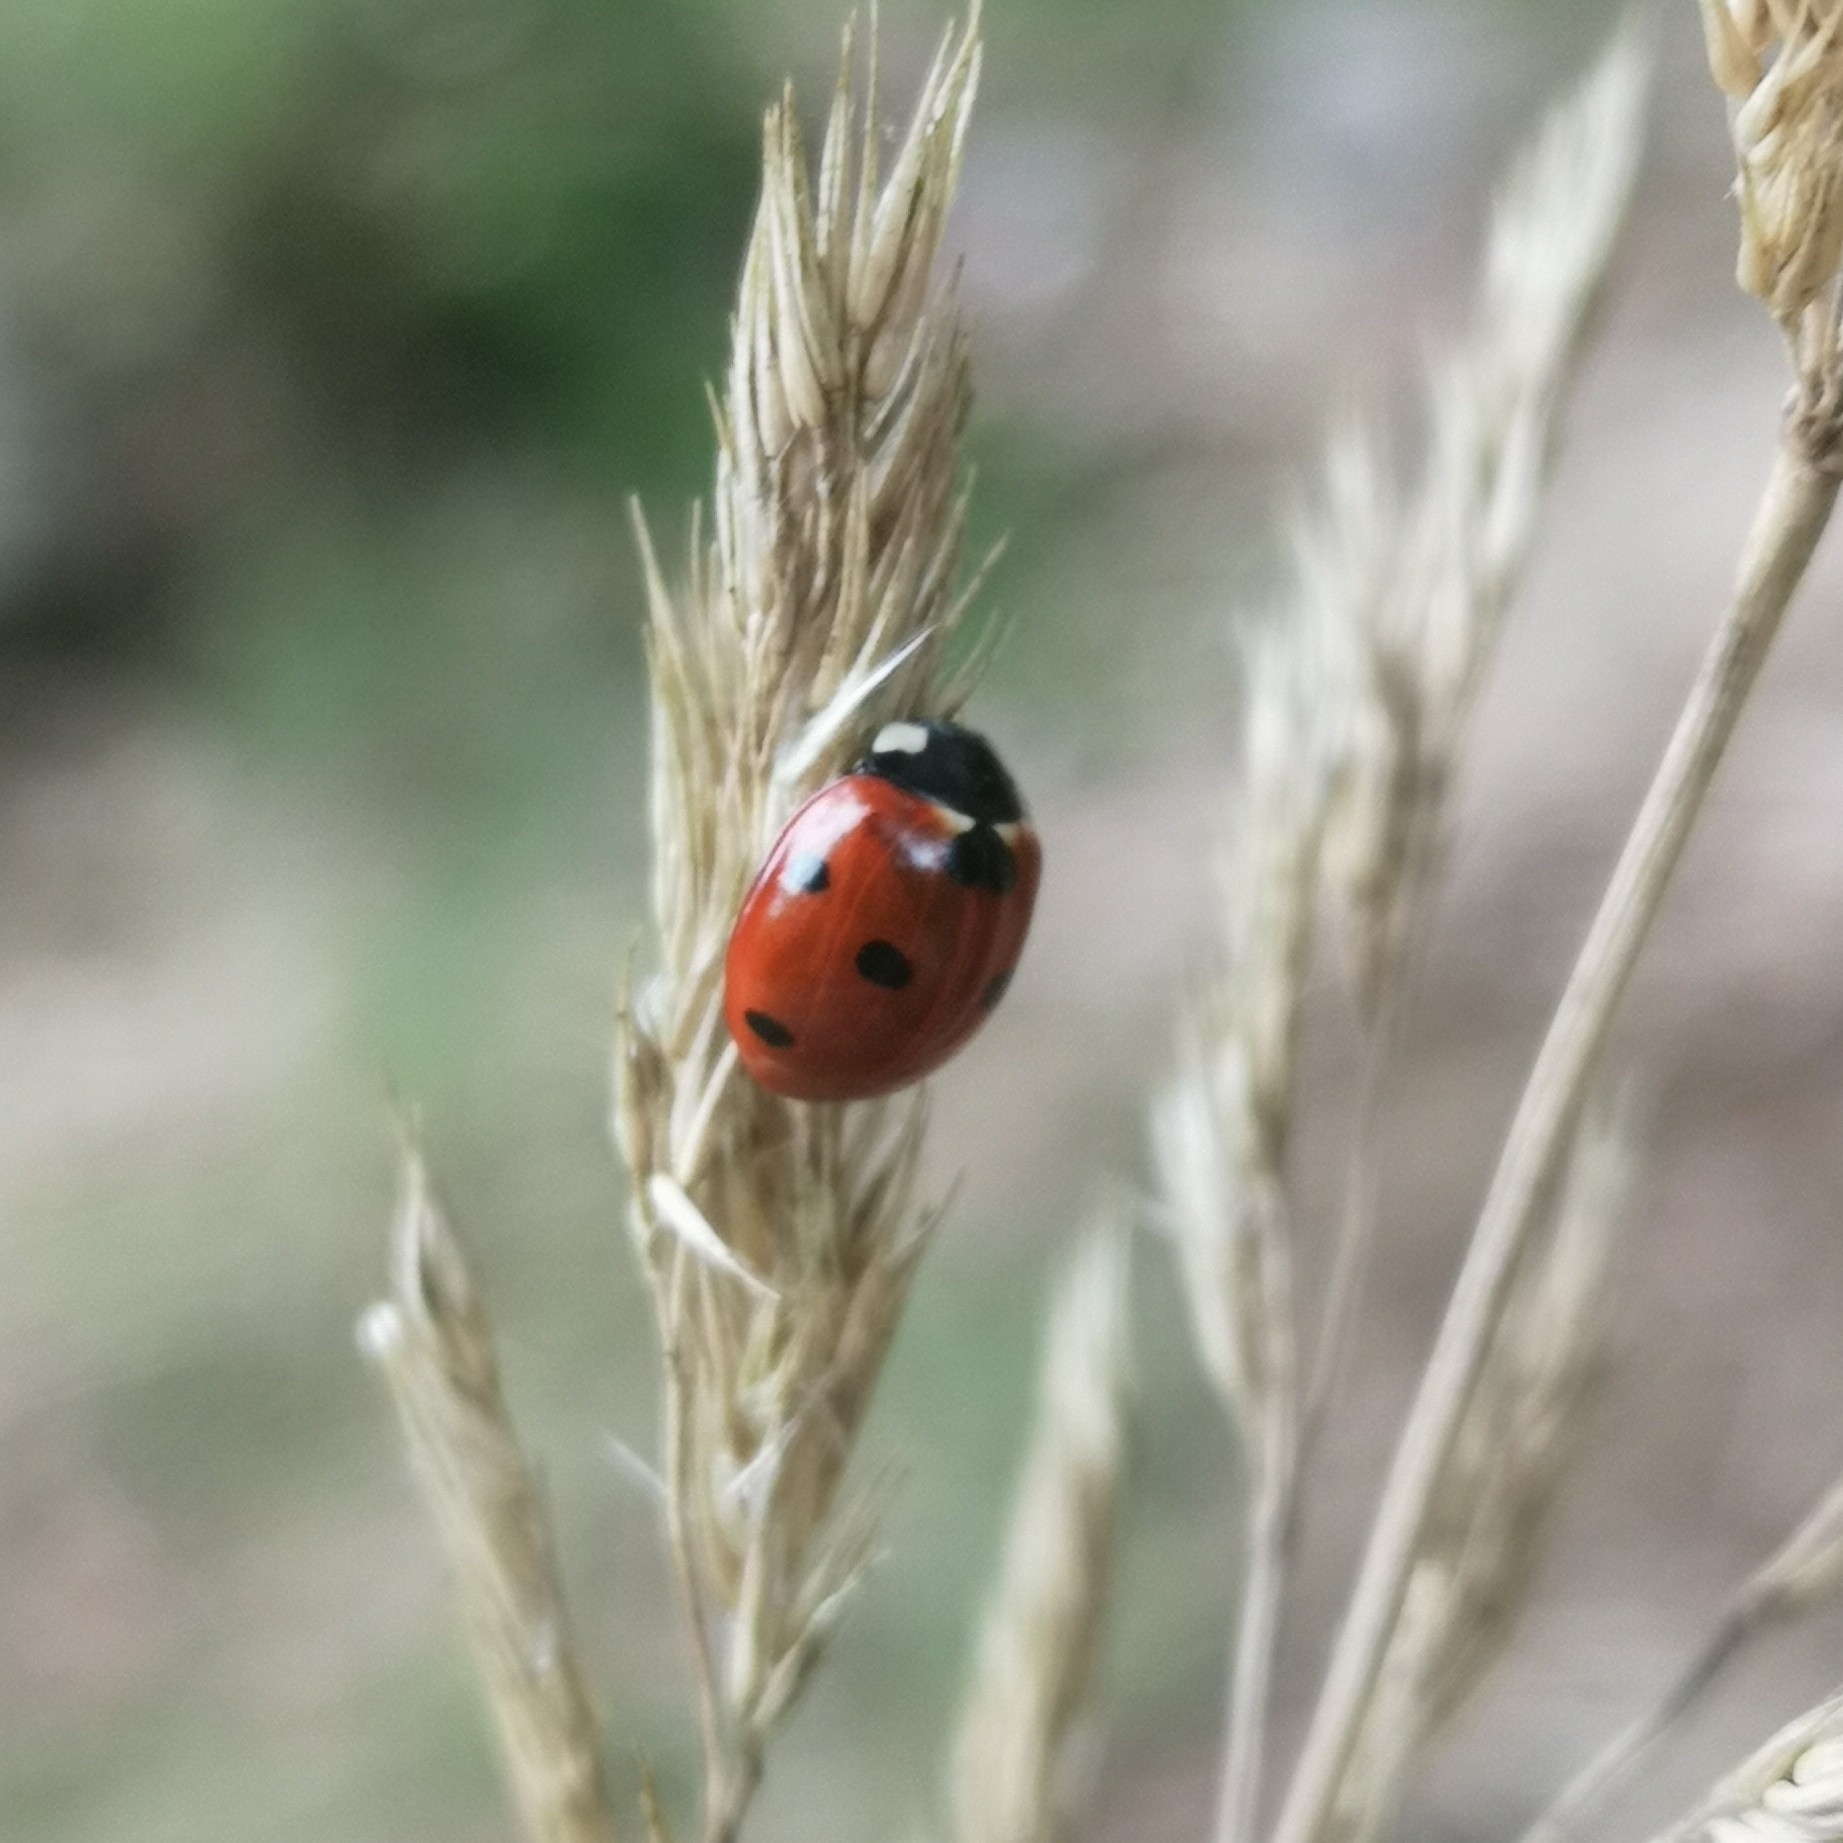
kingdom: Animalia
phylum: Arthropoda
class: Insecta
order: Coleoptera
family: Coccinellidae
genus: Coccinella
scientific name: Coccinella septempunctata
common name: Sevenspotted lady beetle
